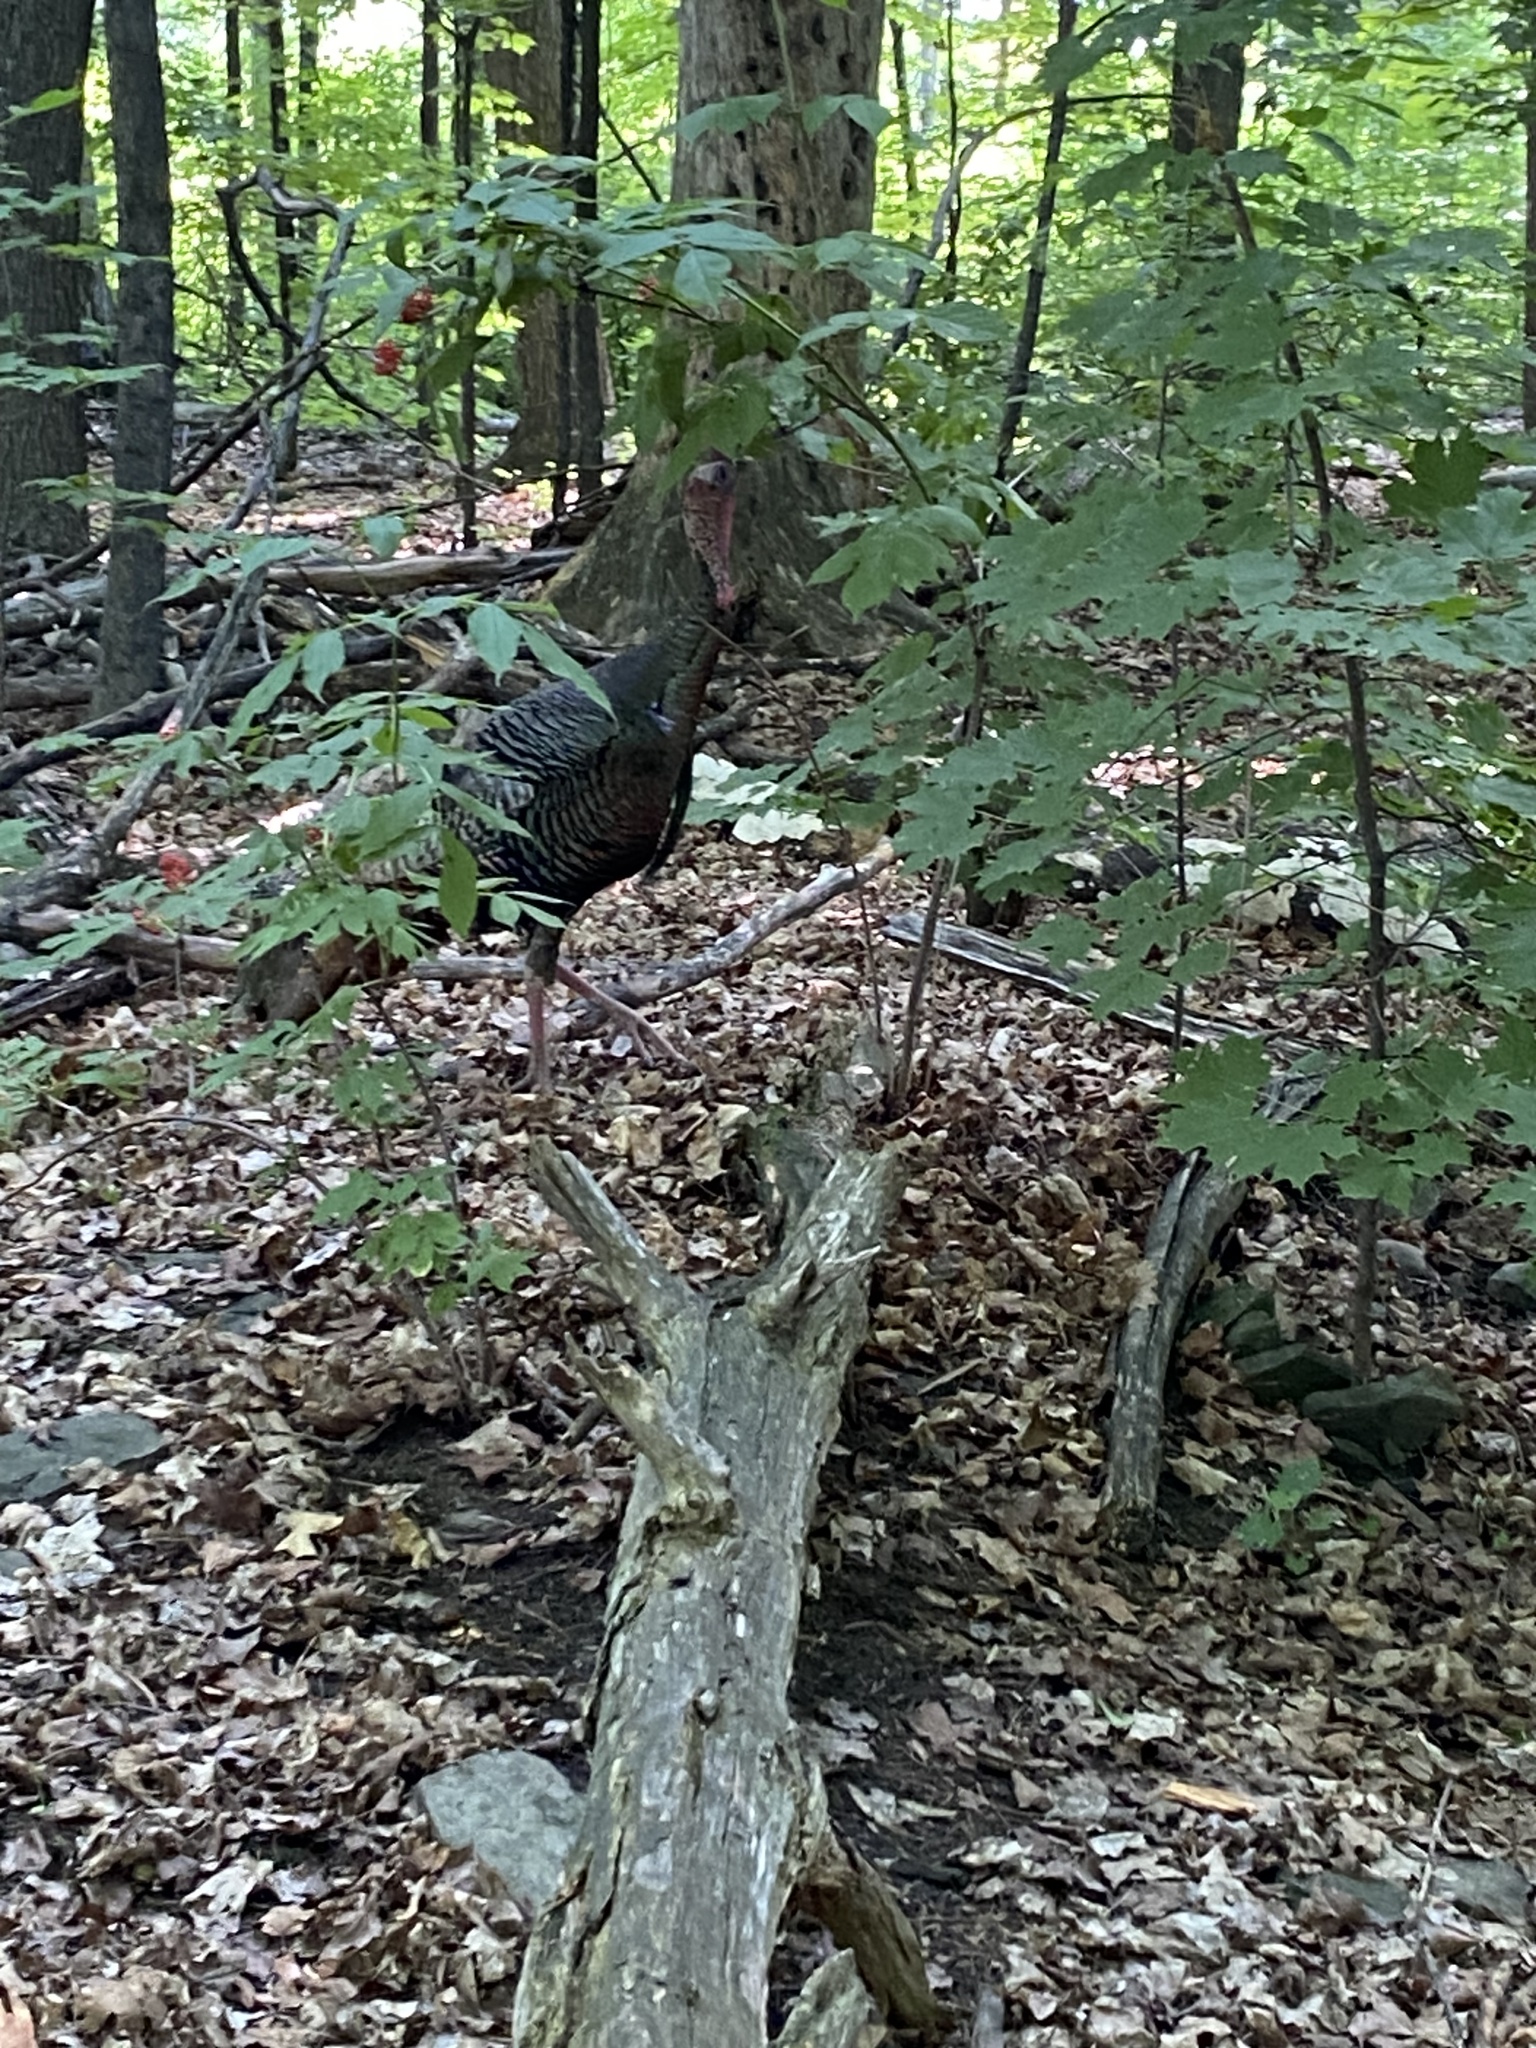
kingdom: Animalia
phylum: Chordata
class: Aves
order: Galliformes
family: Phasianidae
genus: Meleagris
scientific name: Meleagris gallopavo
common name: Wild turkey
